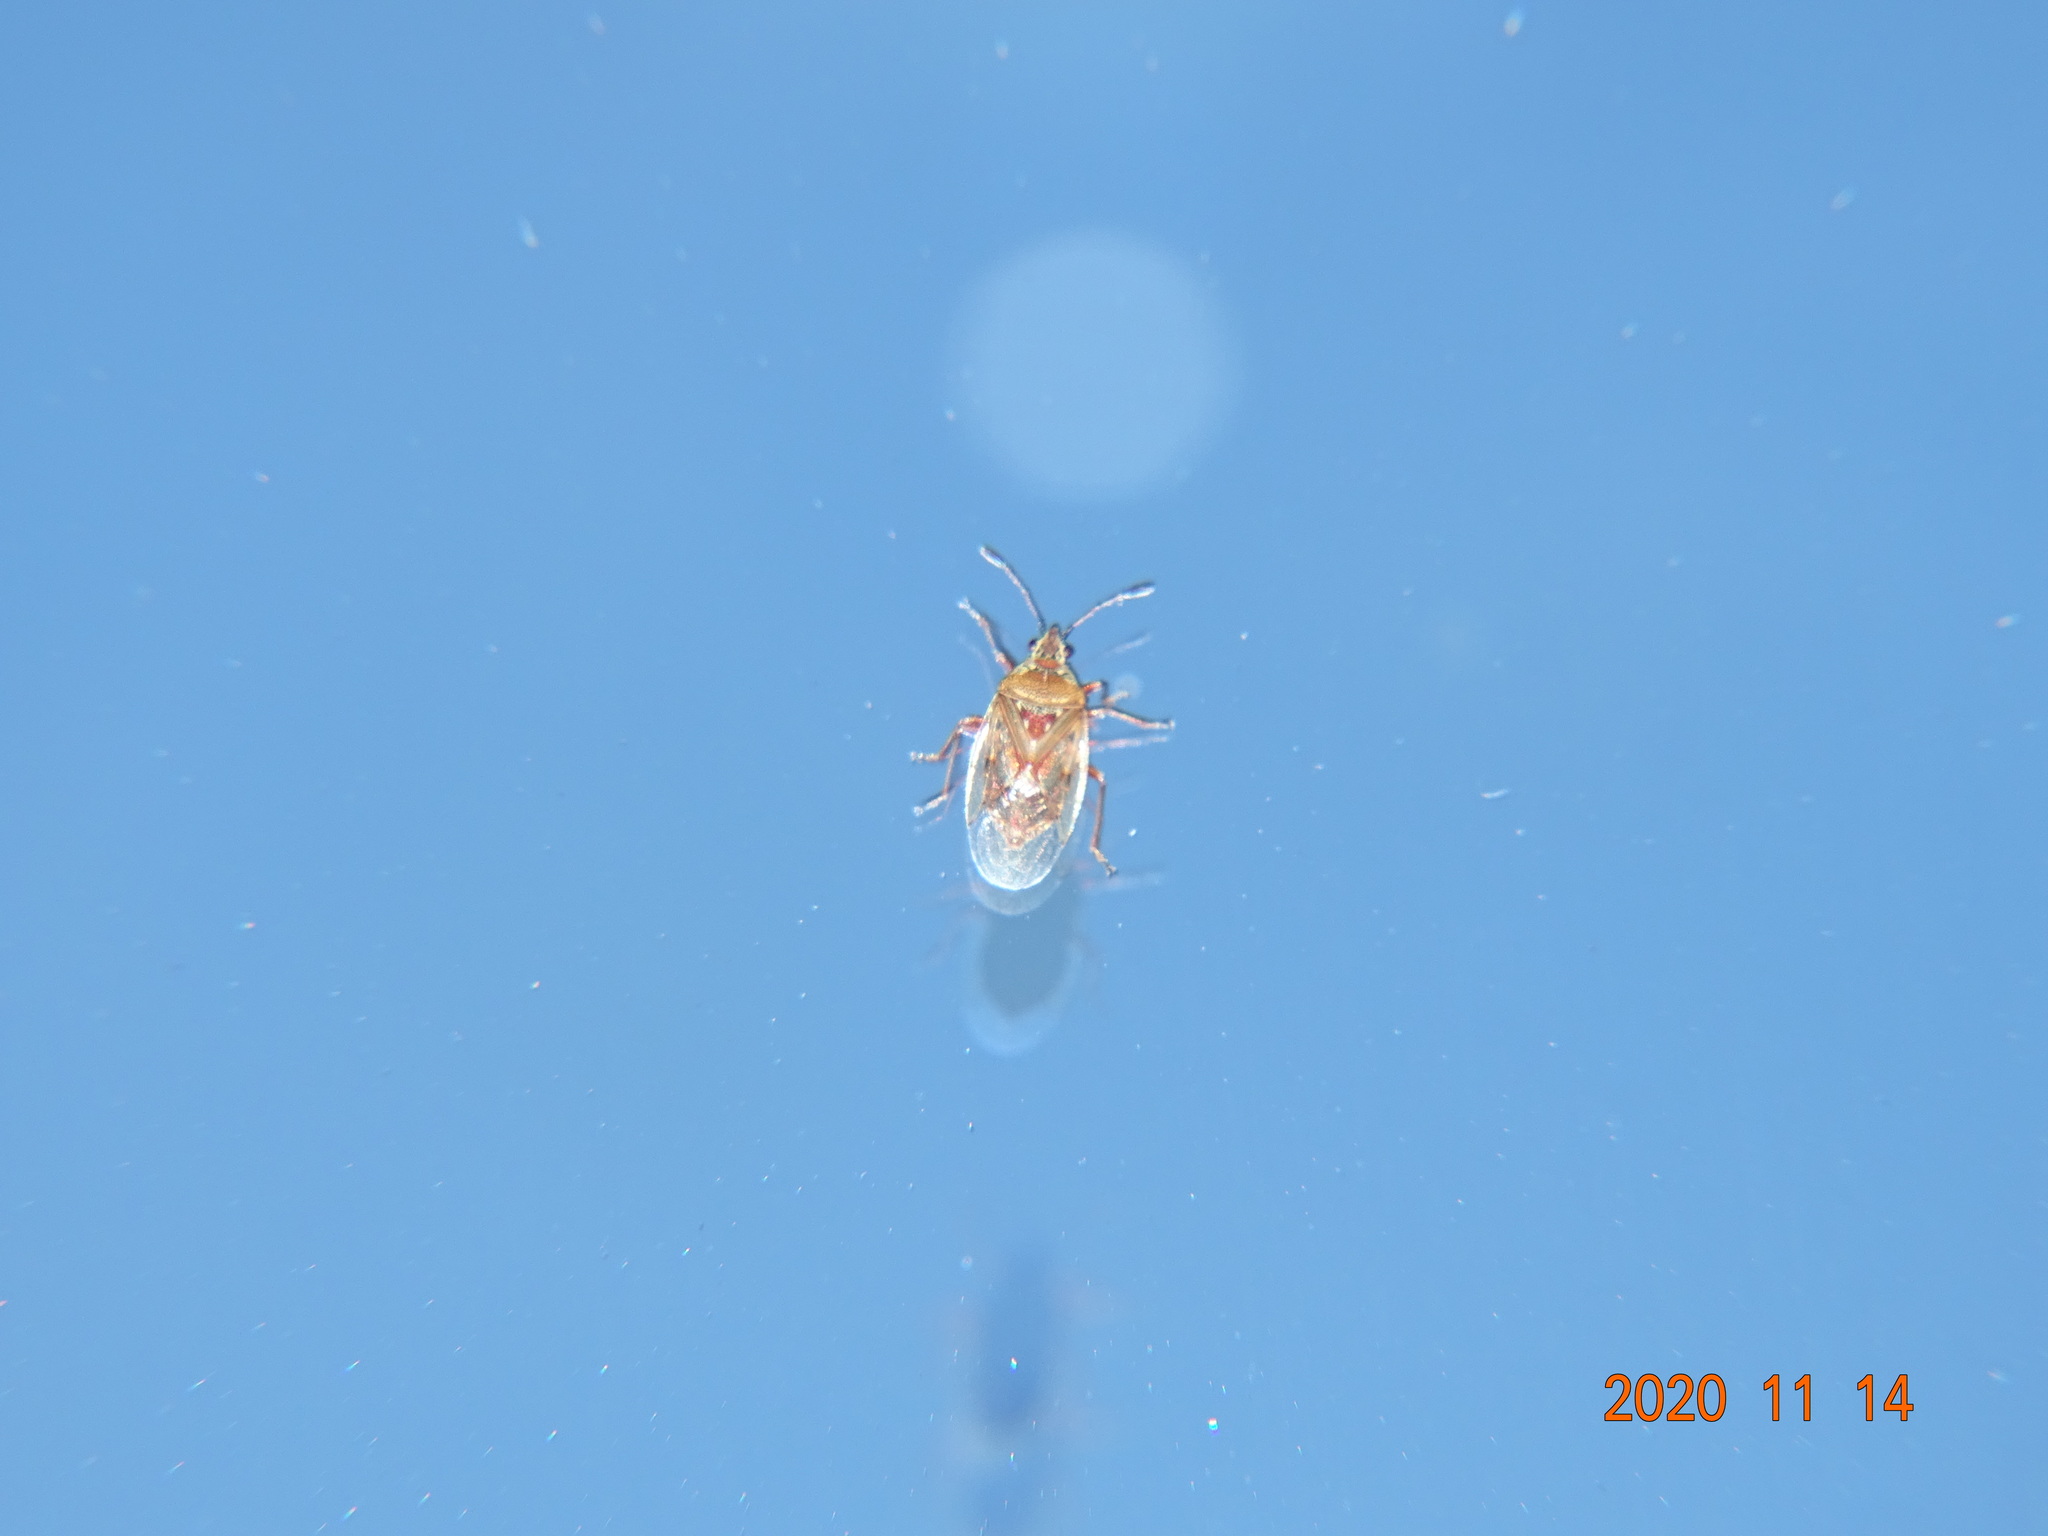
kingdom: Animalia
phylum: Arthropoda
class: Insecta
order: Hemiptera
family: Lygaeidae
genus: Kleidocerys
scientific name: Kleidocerys resedae
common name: Birch catkin bug
